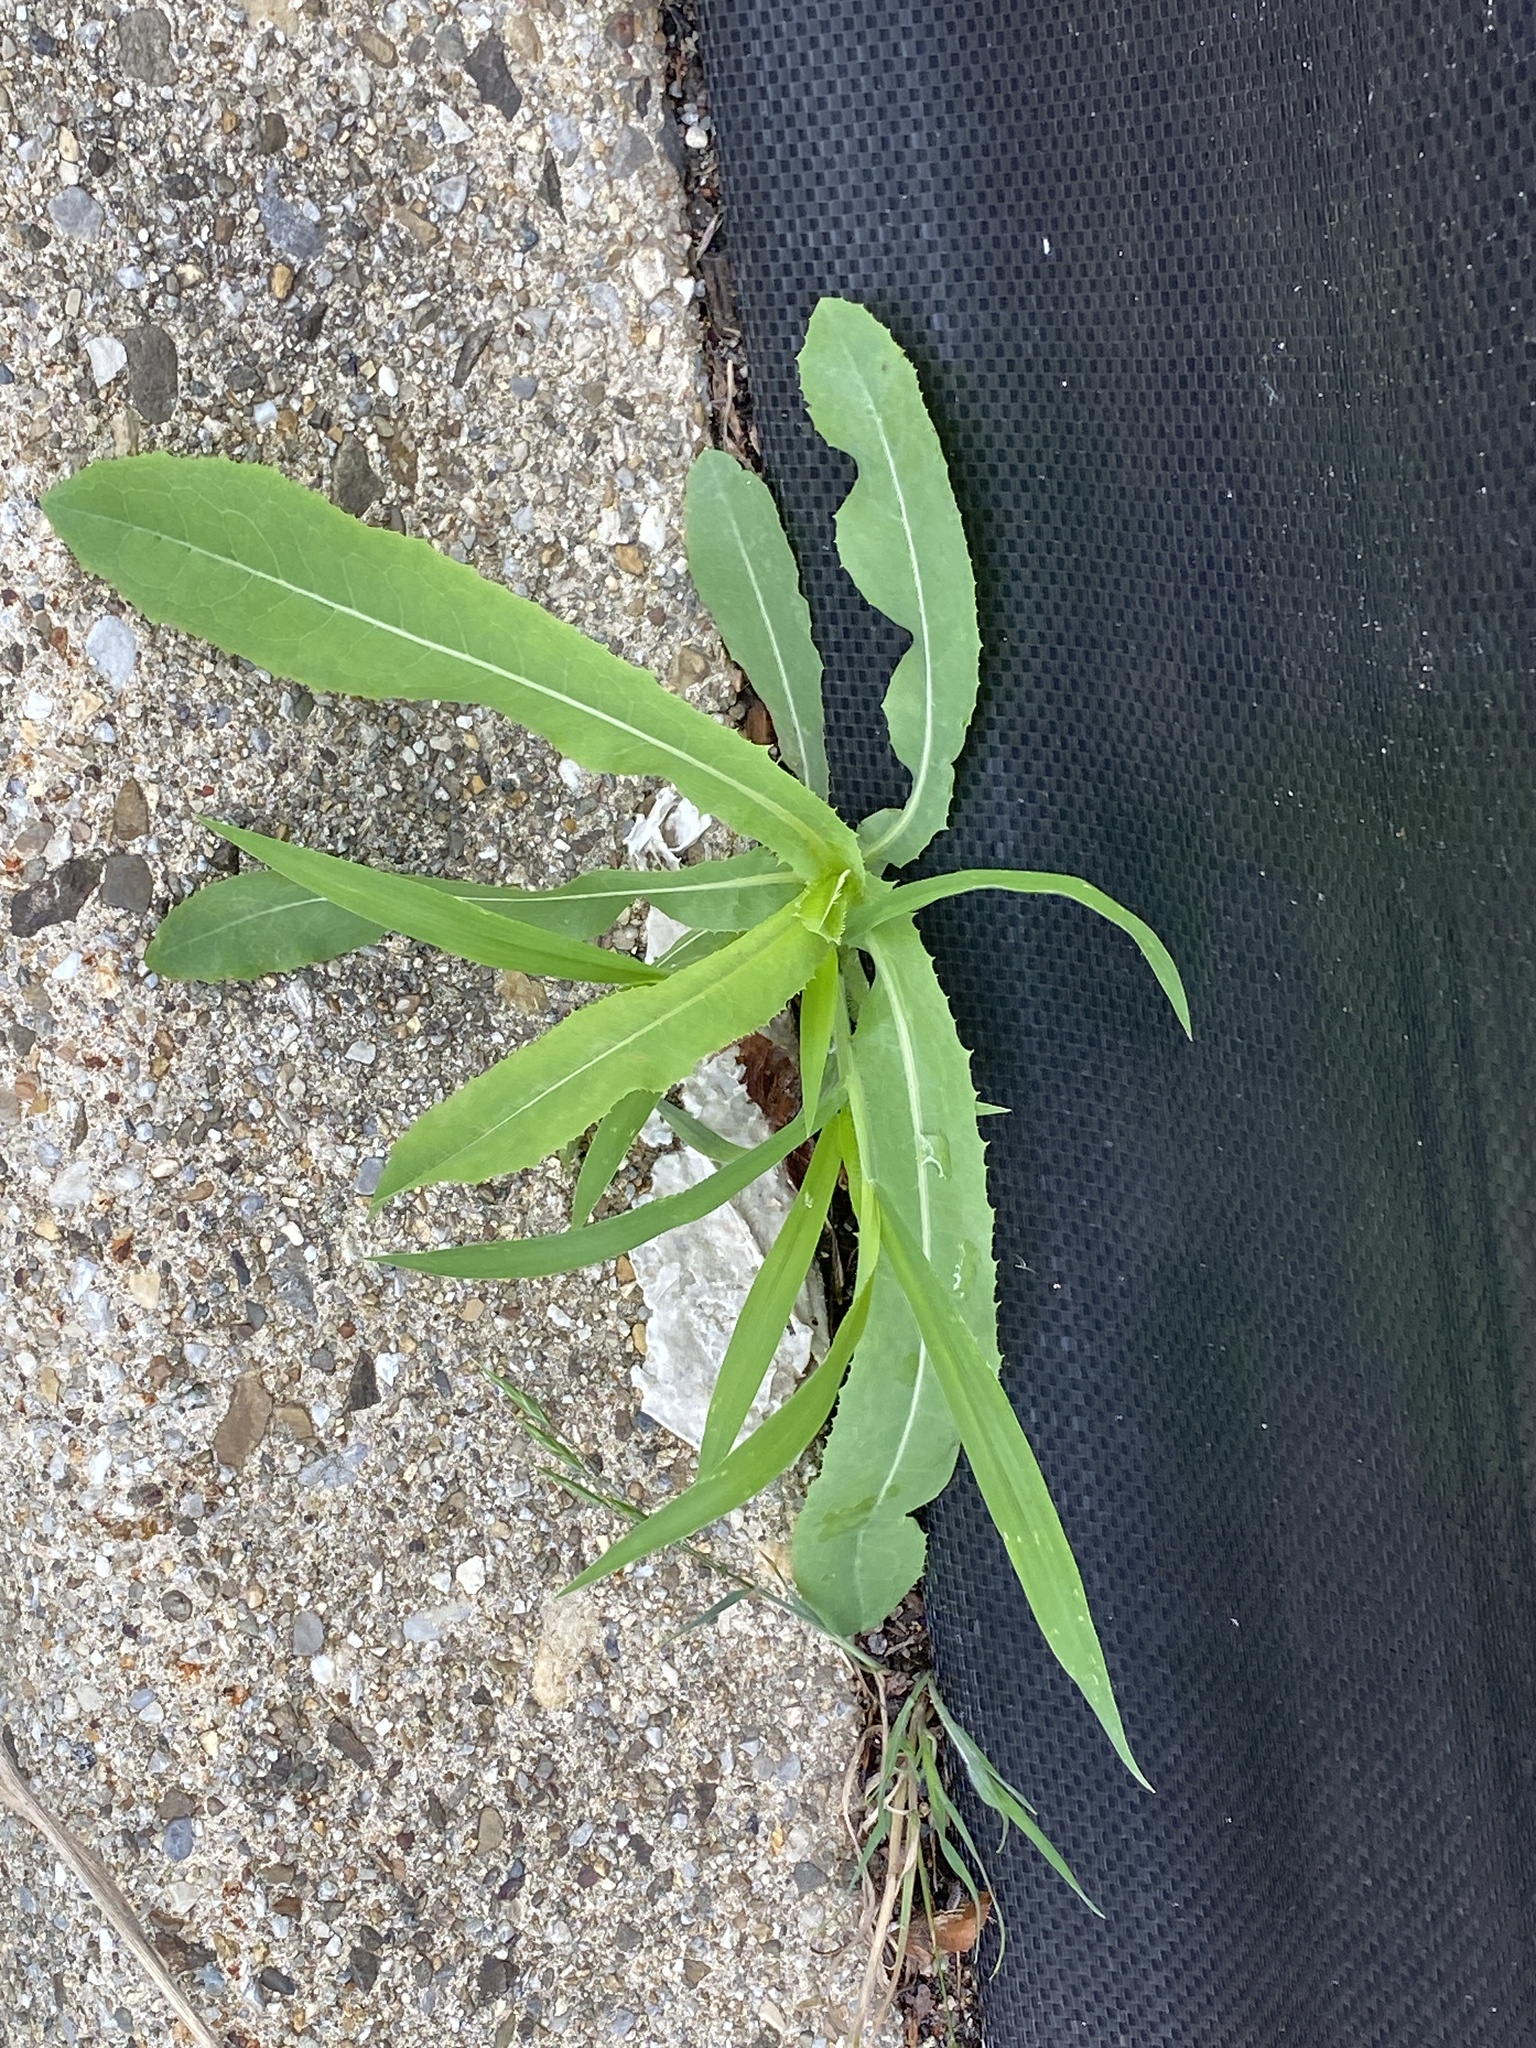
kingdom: Plantae
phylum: Tracheophyta
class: Magnoliopsida
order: Asterales
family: Asteraceae
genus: Lactuca
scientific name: Lactuca serriola
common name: Prickly lettuce
